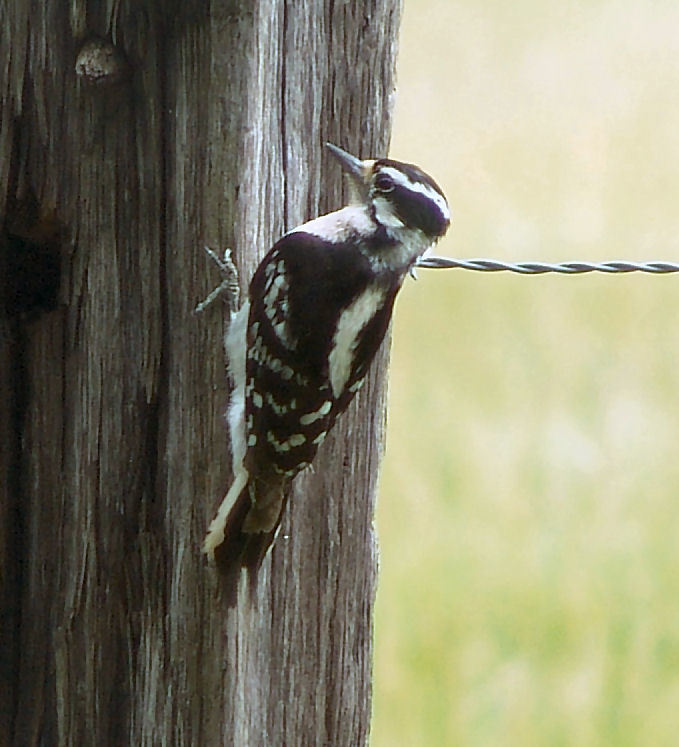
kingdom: Animalia
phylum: Chordata
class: Aves
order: Piciformes
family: Picidae
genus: Dryobates
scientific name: Dryobates pubescens
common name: Downy woodpecker
